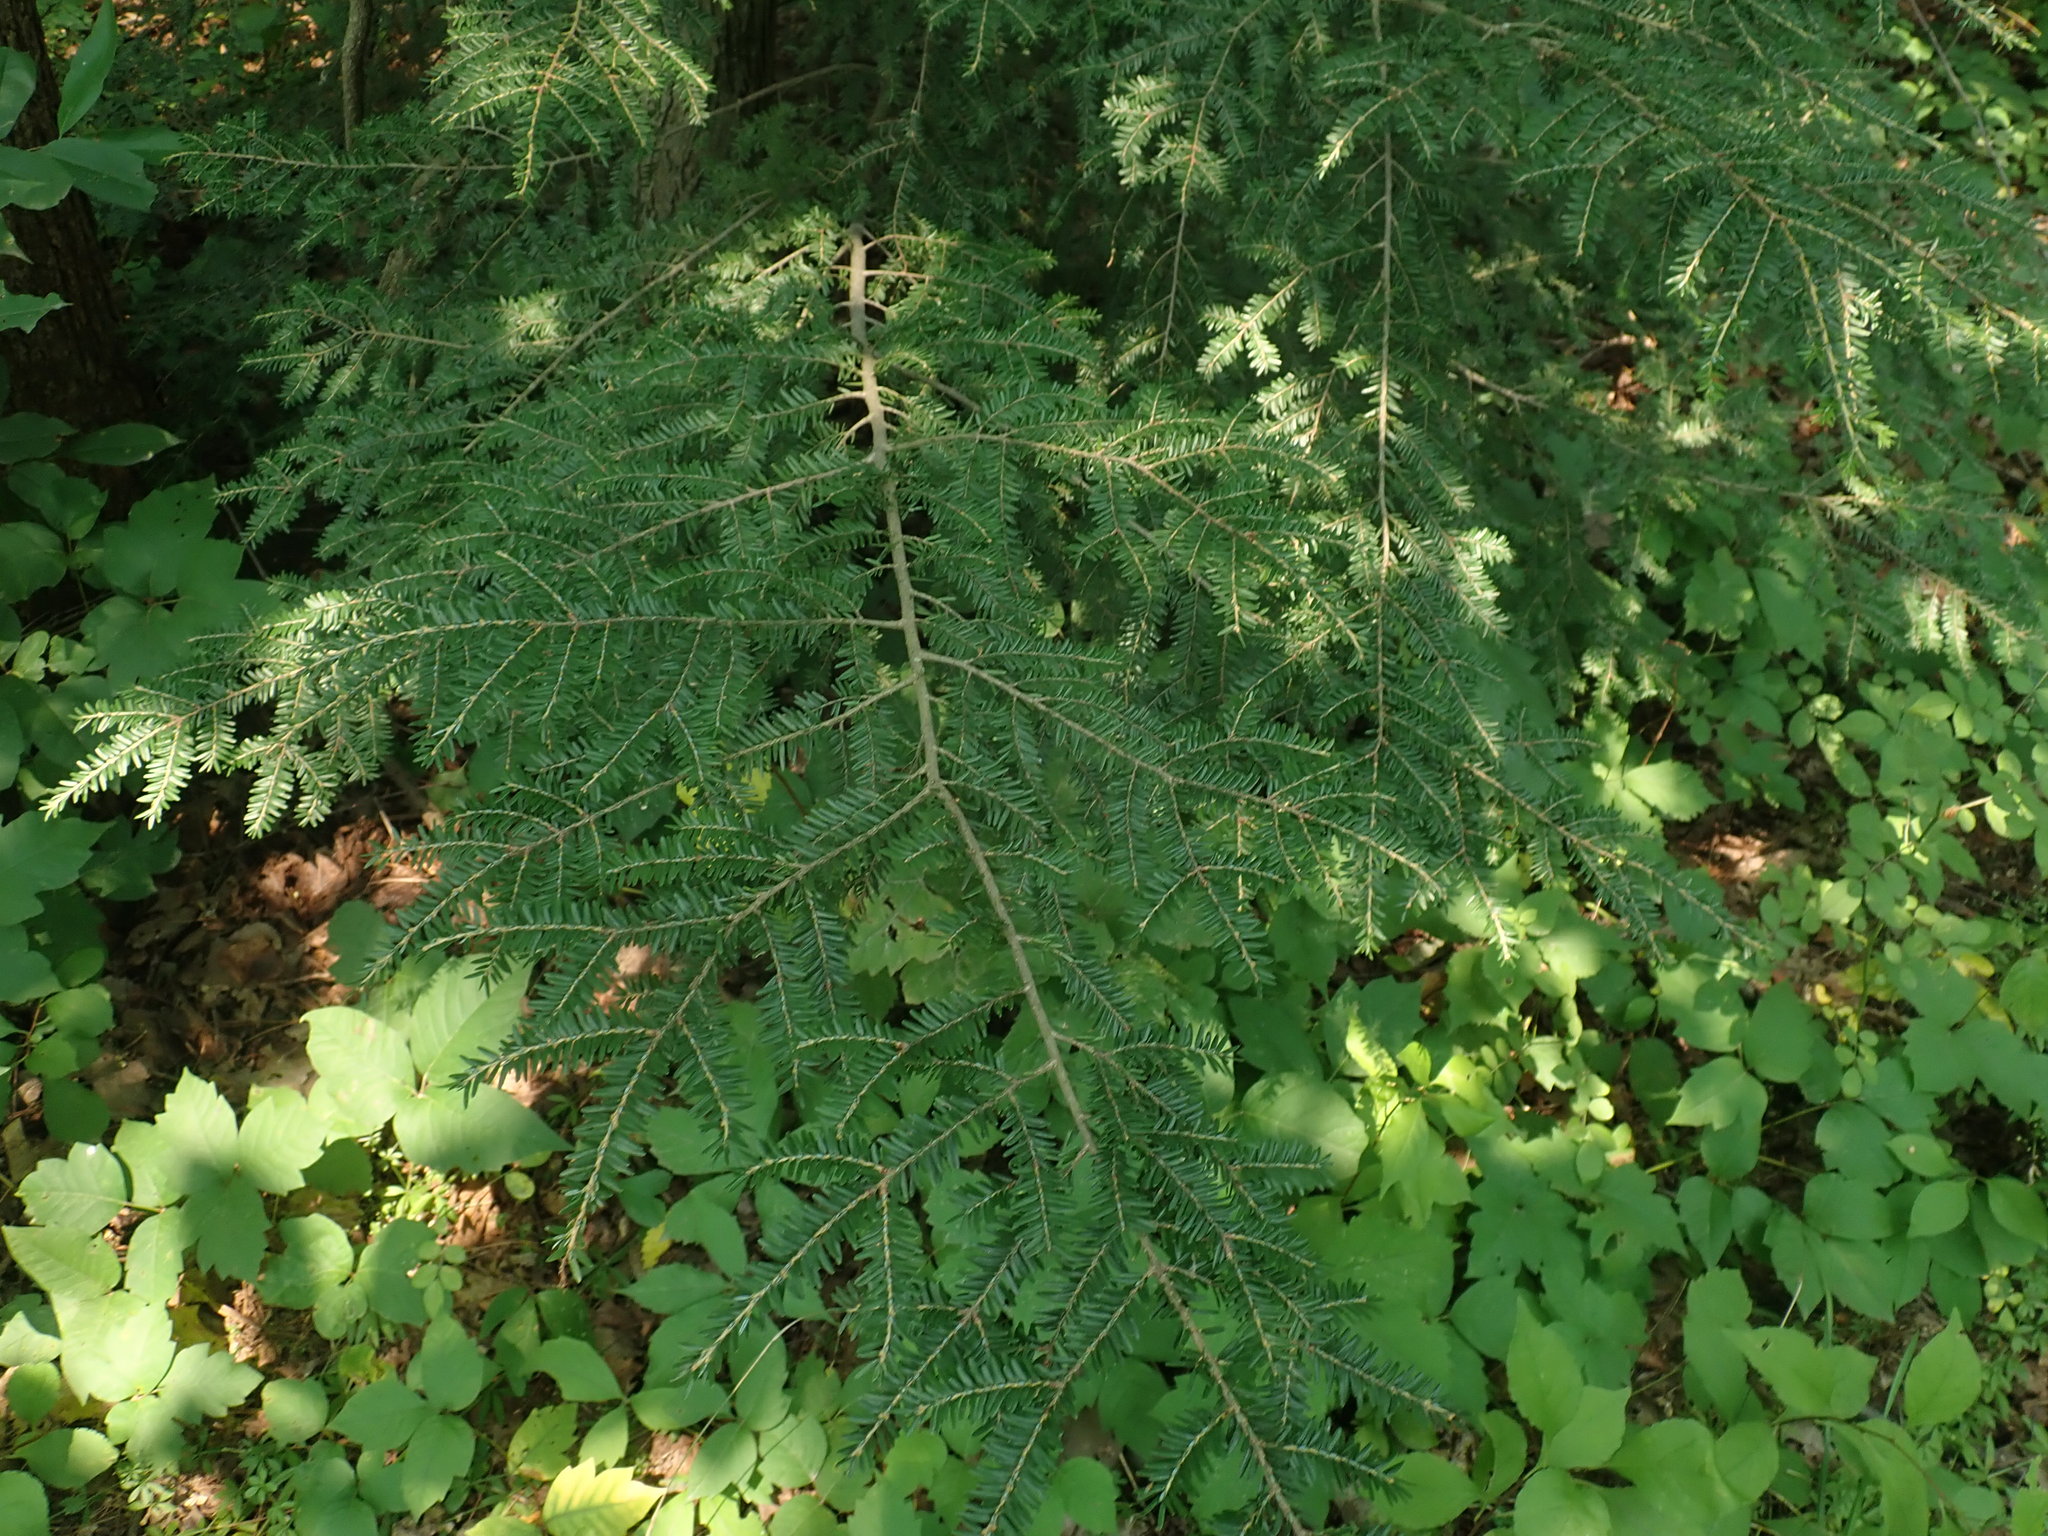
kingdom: Plantae
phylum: Tracheophyta
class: Pinopsida
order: Pinales
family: Pinaceae
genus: Tsuga
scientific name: Tsuga canadensis
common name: Eastern hemlock
